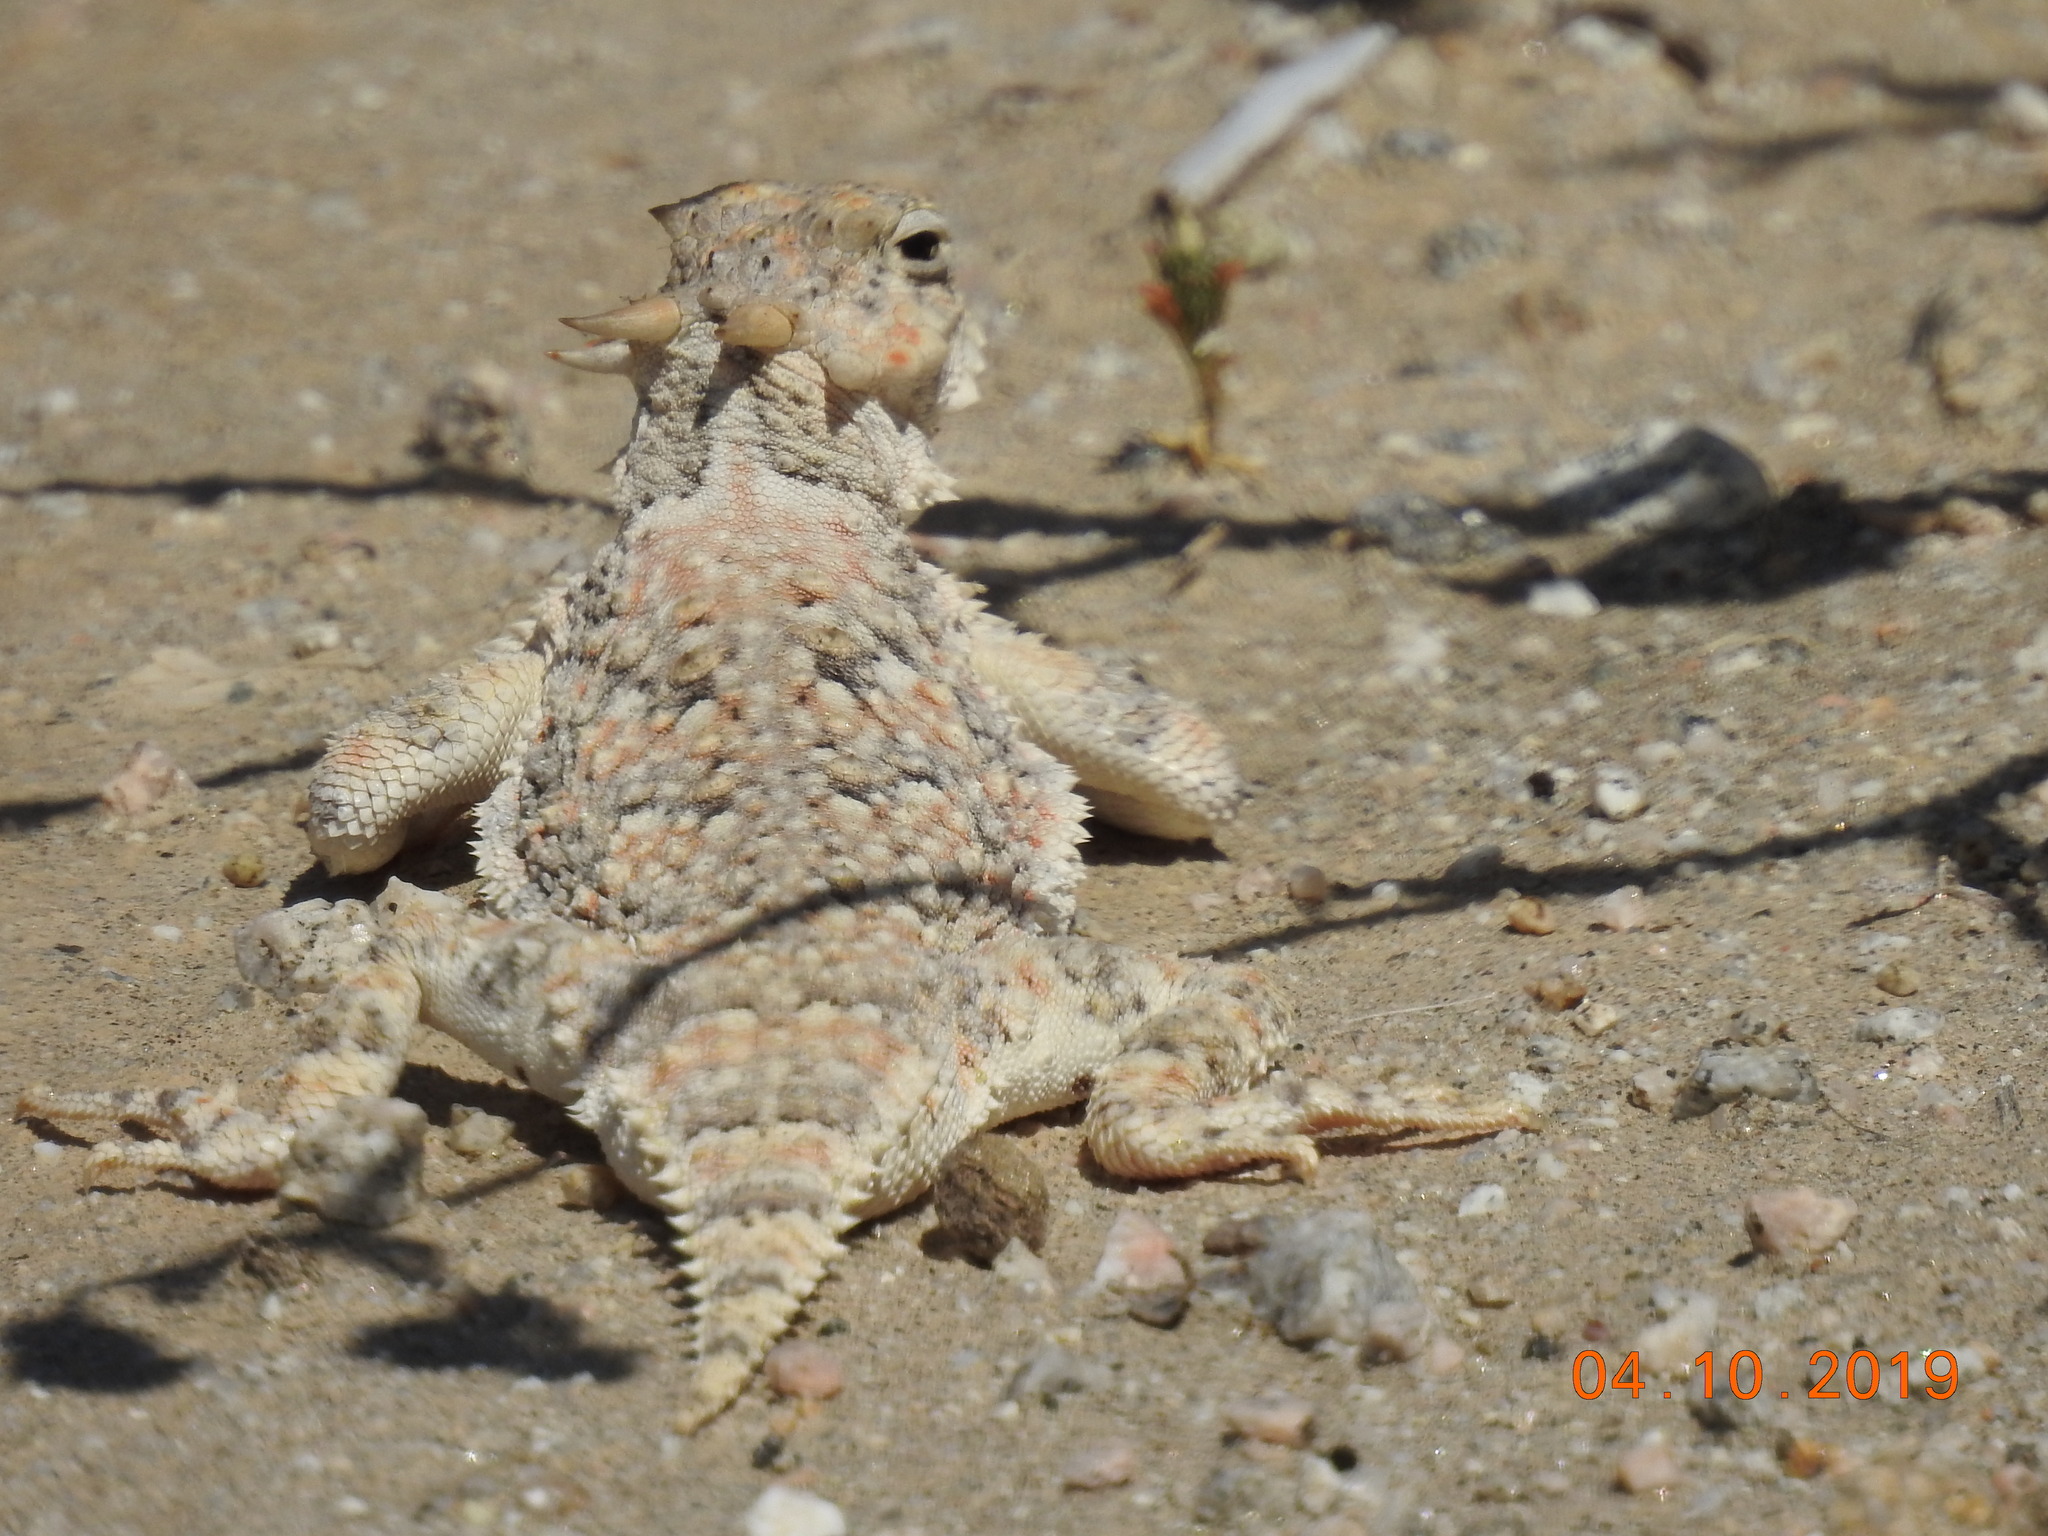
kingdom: Animalia
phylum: Chordata
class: Squamata
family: Phrynosomatidae
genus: Phrynosoma
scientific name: Phrynosoma platyrhinos
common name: Desert horned lizard
